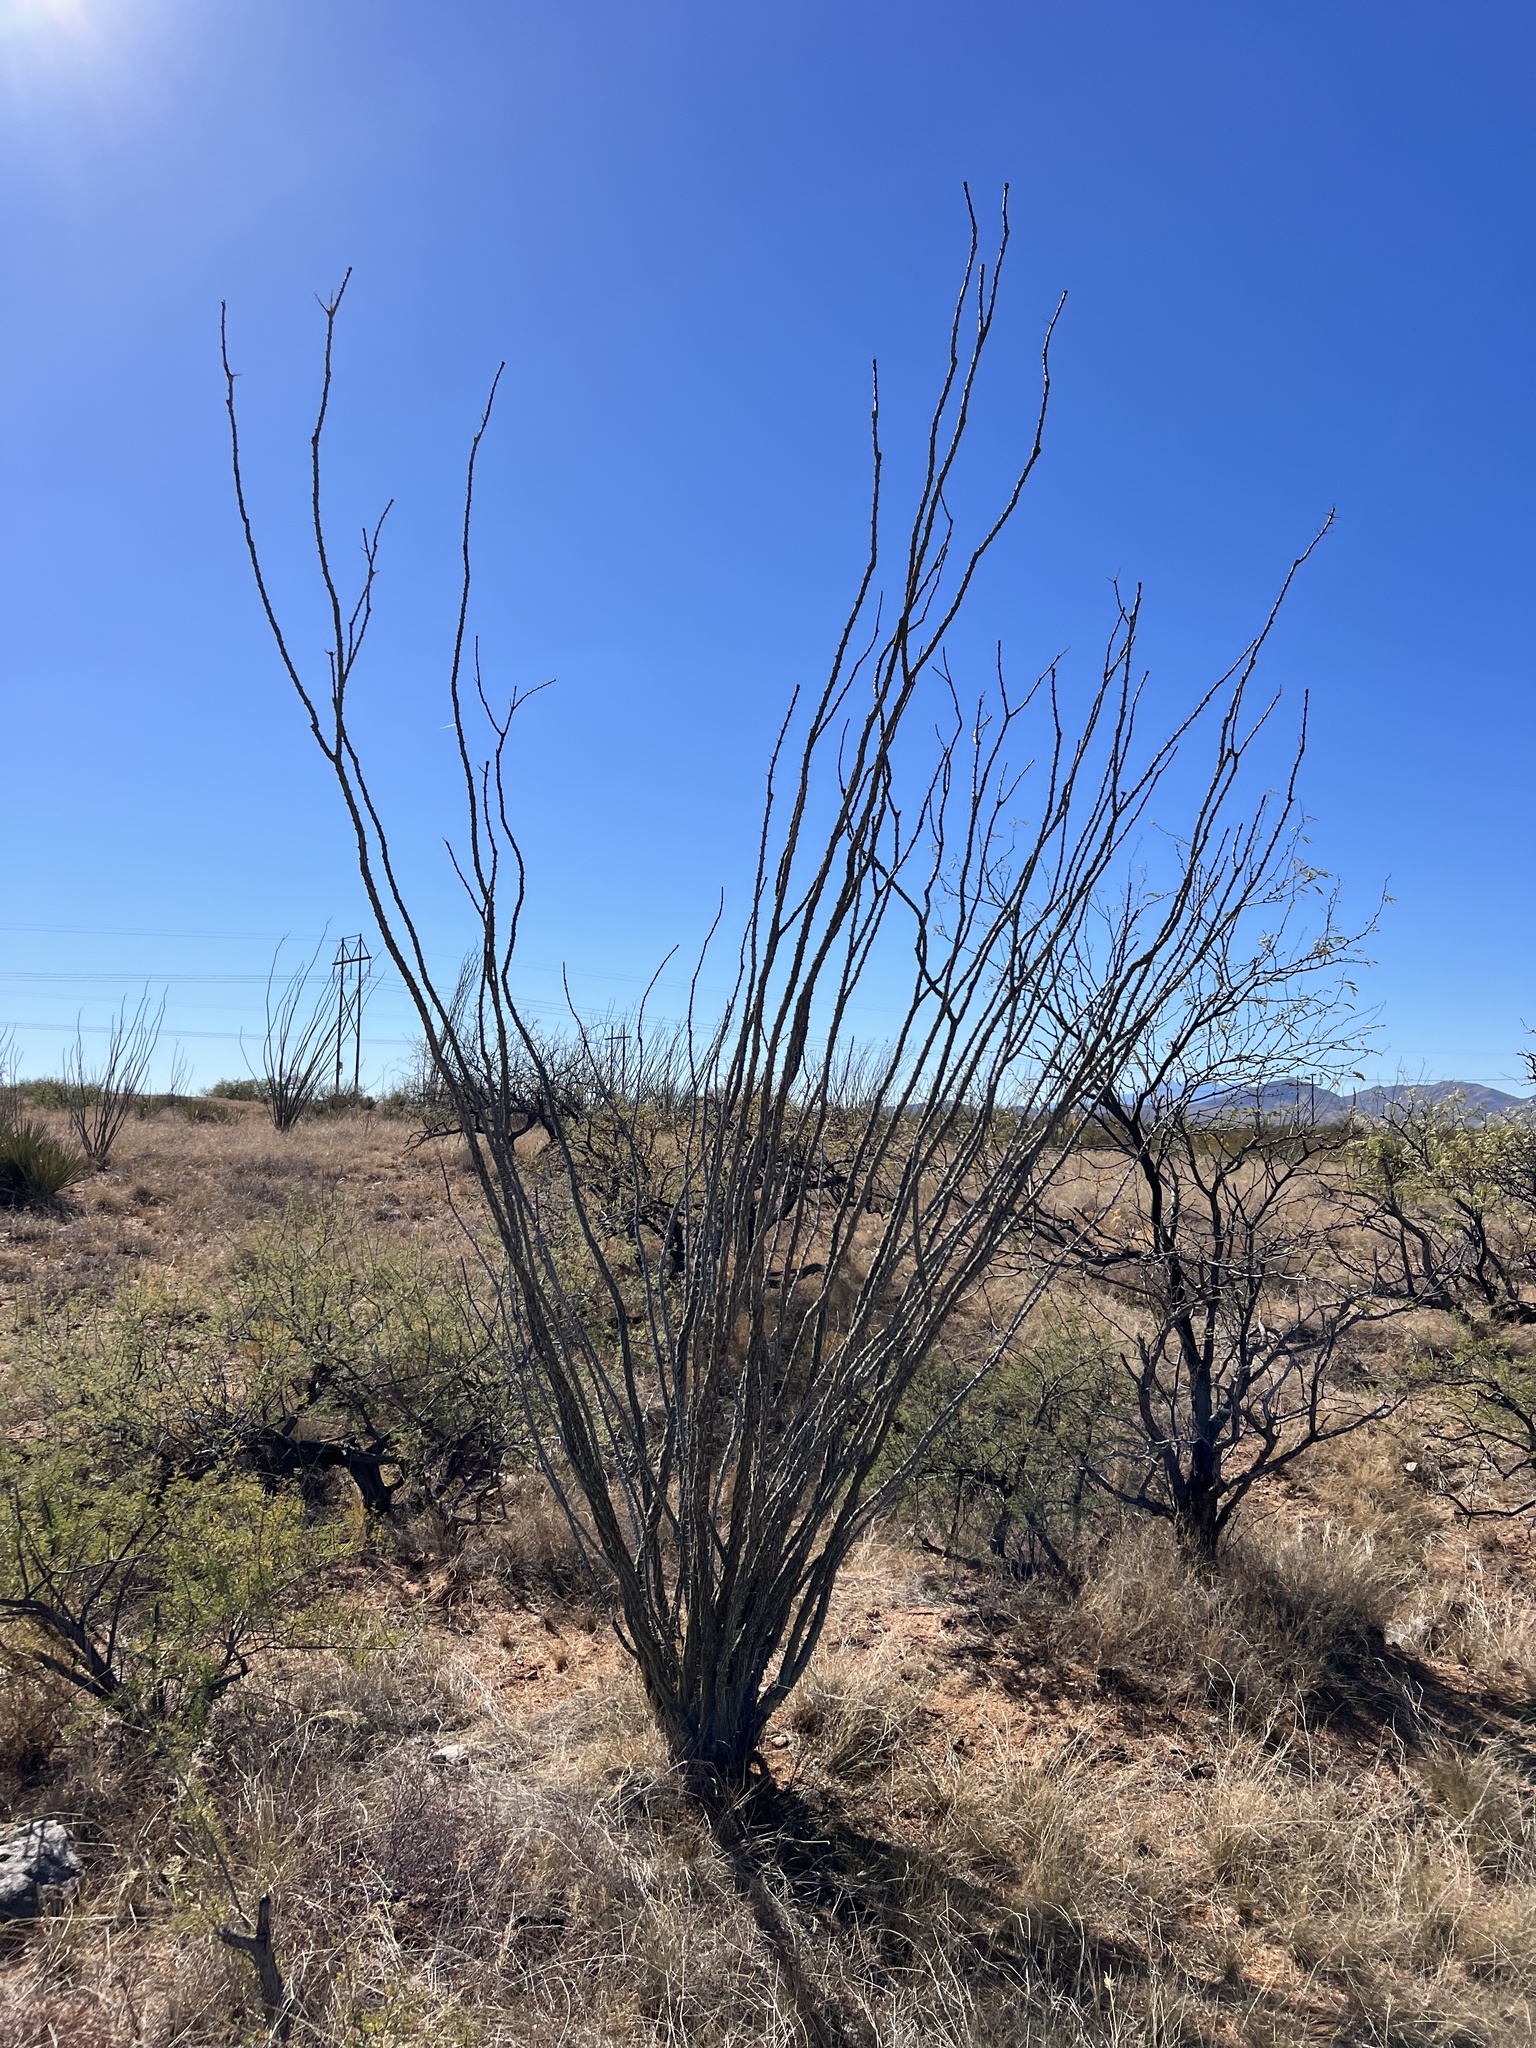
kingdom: Plantae
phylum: Tracheophyta
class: Magnoliopsida
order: Ericales
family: Fouquieriaceae
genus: Fouquieria
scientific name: Fouquieria splendens
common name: Vine-cactus
